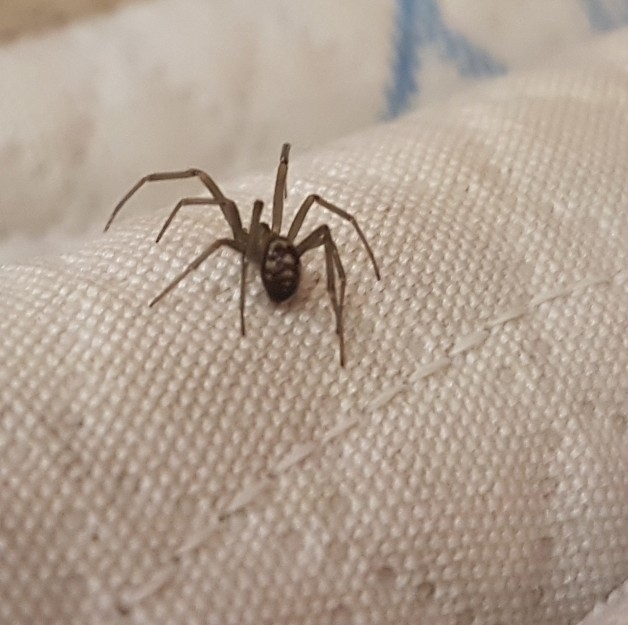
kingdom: Animalia
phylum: Arthropoda
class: Arachnida
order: Araneae
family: Theridiidae
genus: Steatoda
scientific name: Steatoda grossa
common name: False black widow
